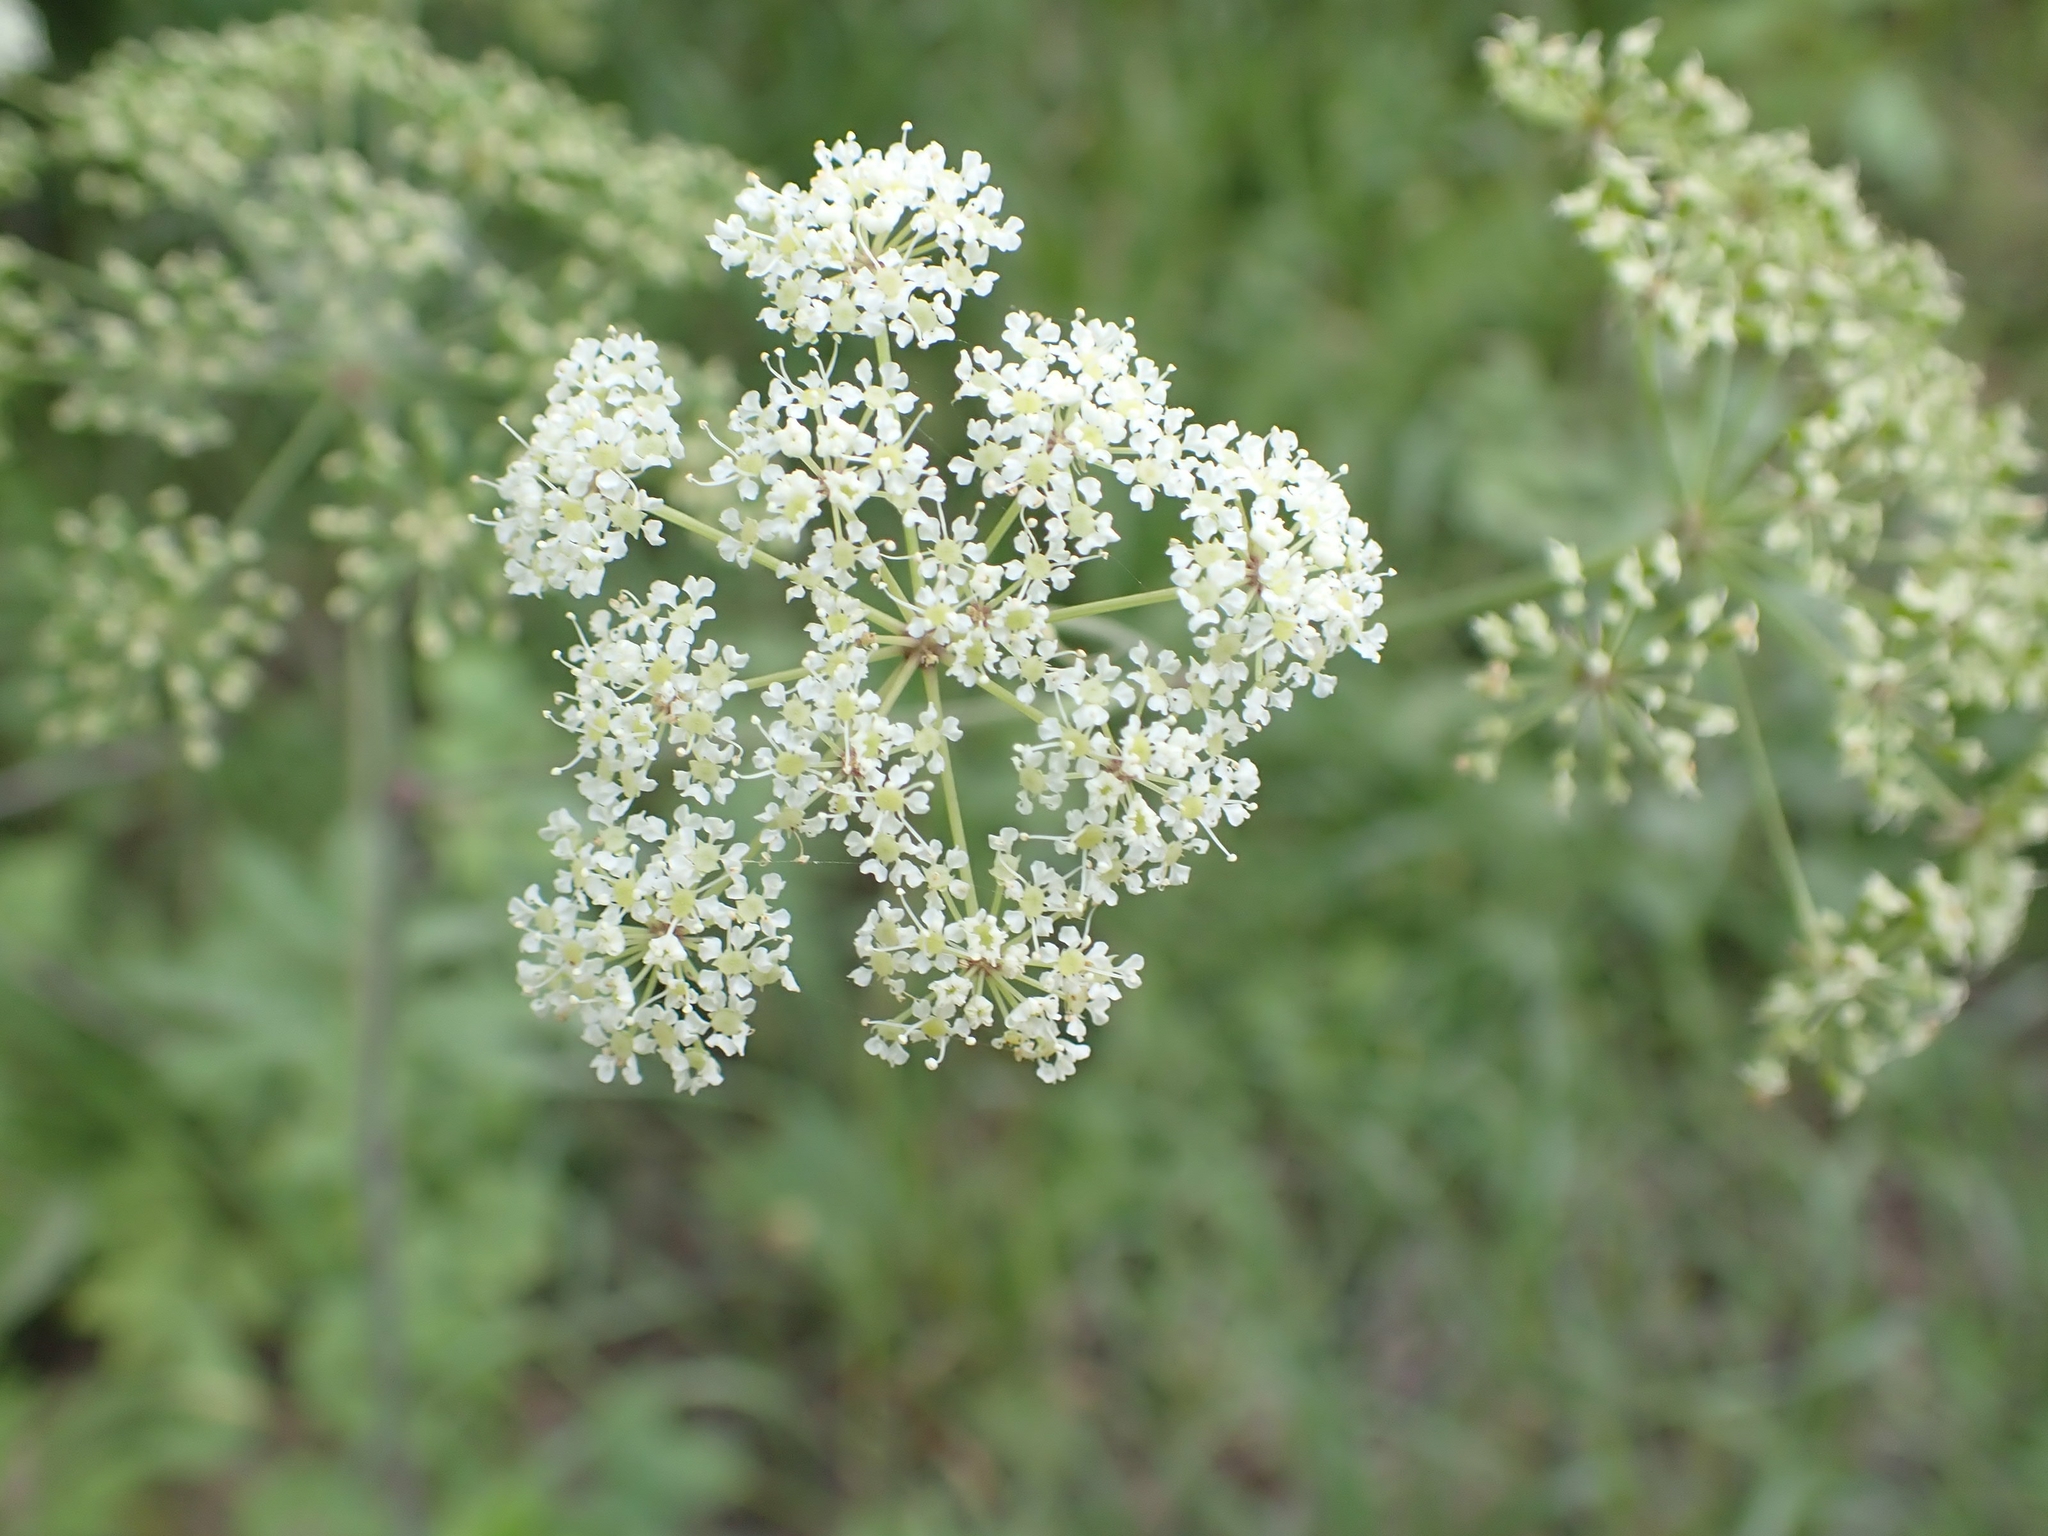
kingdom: Plantae
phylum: Tracheophyta
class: Magnoliopsida
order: Apiales
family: Apiaceae
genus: Cicuta
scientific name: Cicuta maculata
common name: Spotted cowbane
